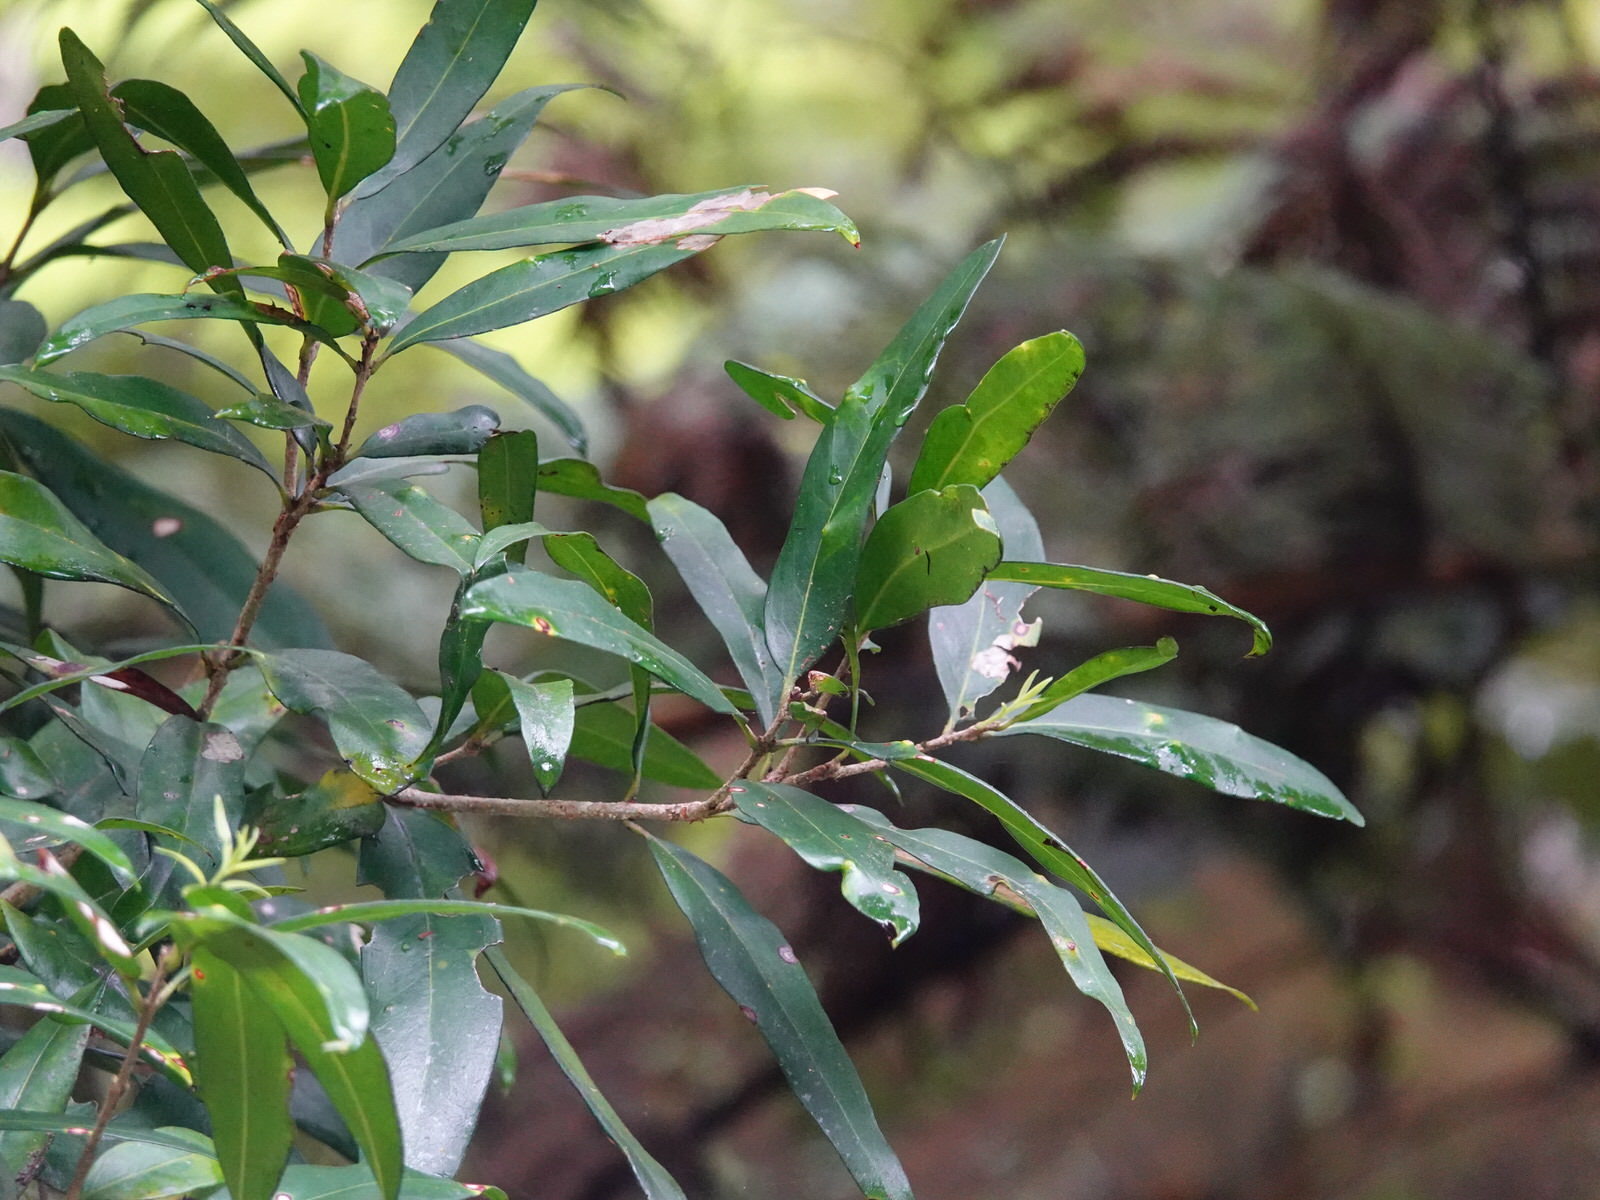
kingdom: Plantae
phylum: Tracheophyta
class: Magnoliopsida
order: Lamiales
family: Oleaceae
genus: Nestegis
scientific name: Nestegis lanceolata
